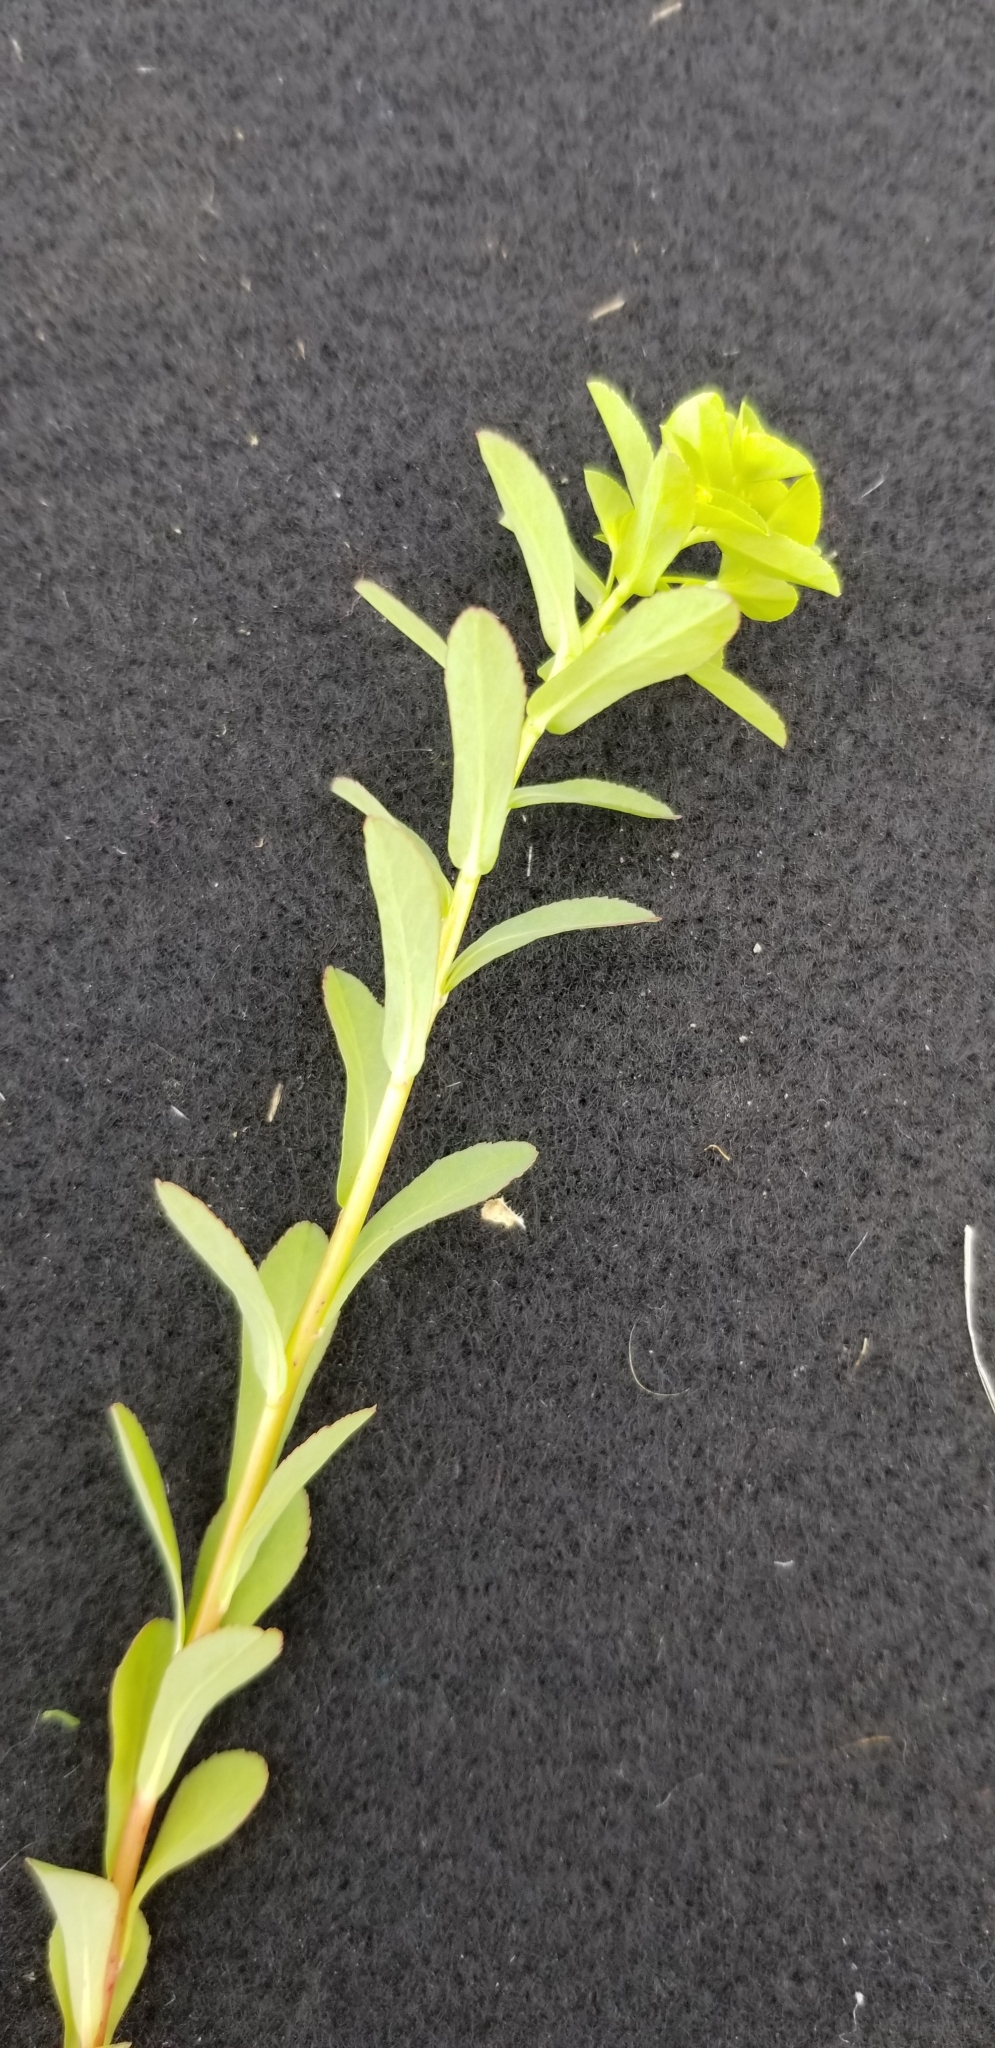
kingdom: Plantae
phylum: Tracheophyta
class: Magnoliopsida
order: Malpighiales
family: Euphorbiaceae
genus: Euphorbia
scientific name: Euphorbia spathulata
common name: Blunt spurge
